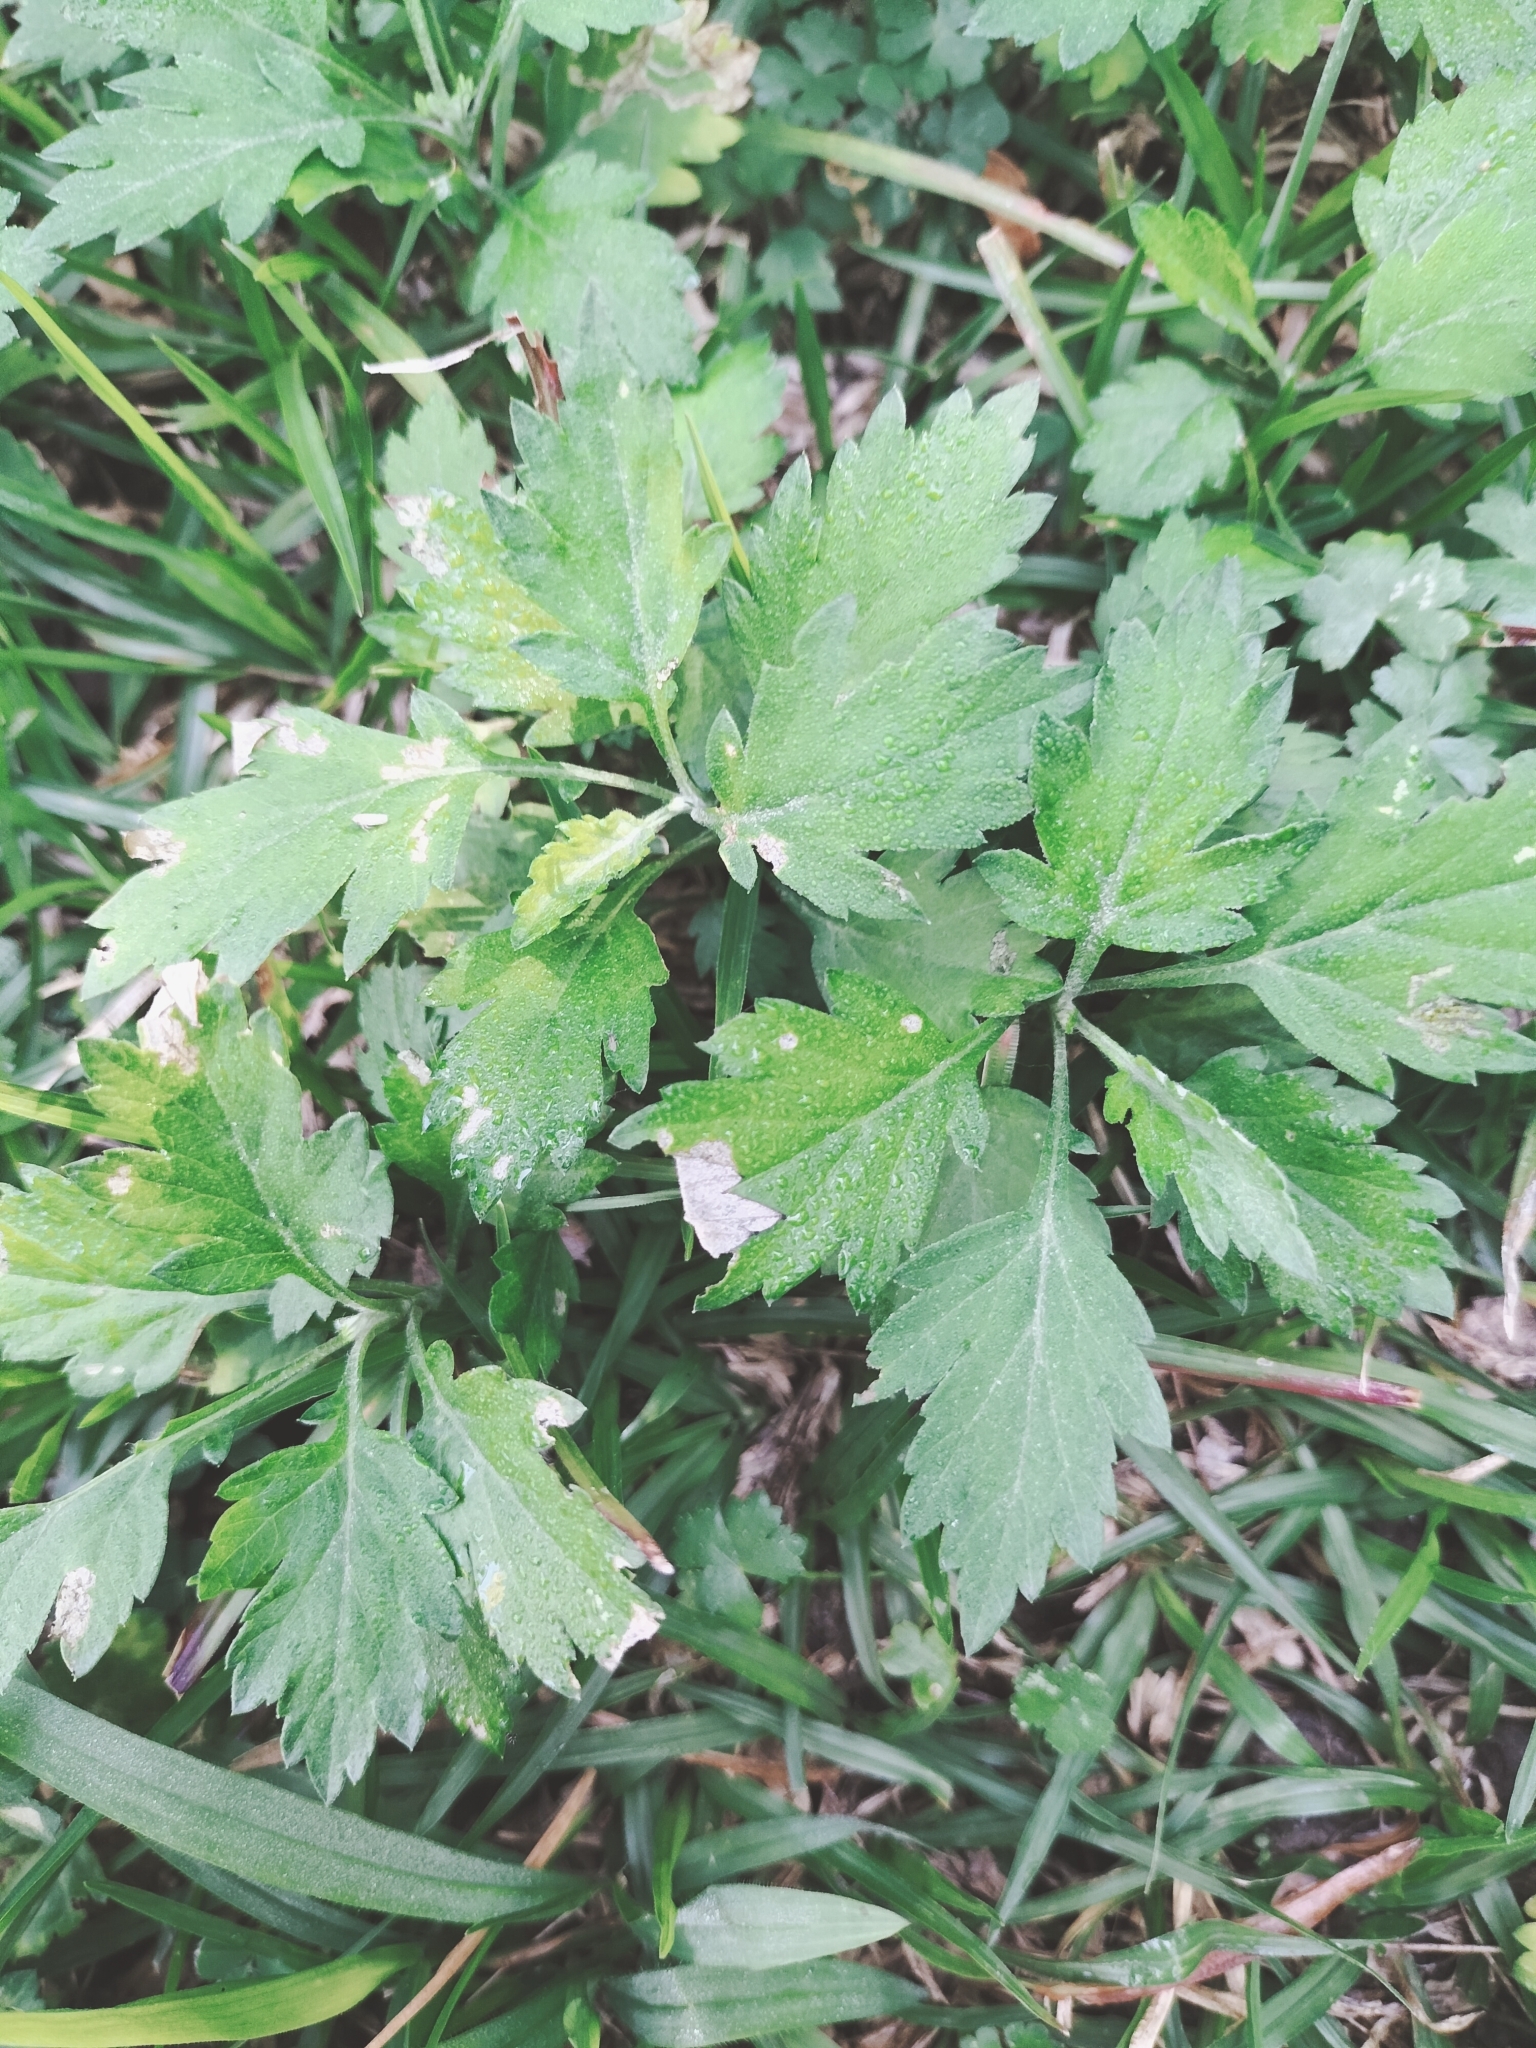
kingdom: Plantae
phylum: Tracheophyta
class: Magnoliopsida
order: Asterales
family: Asteraceae
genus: Artemisia
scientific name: Artemisia indica
